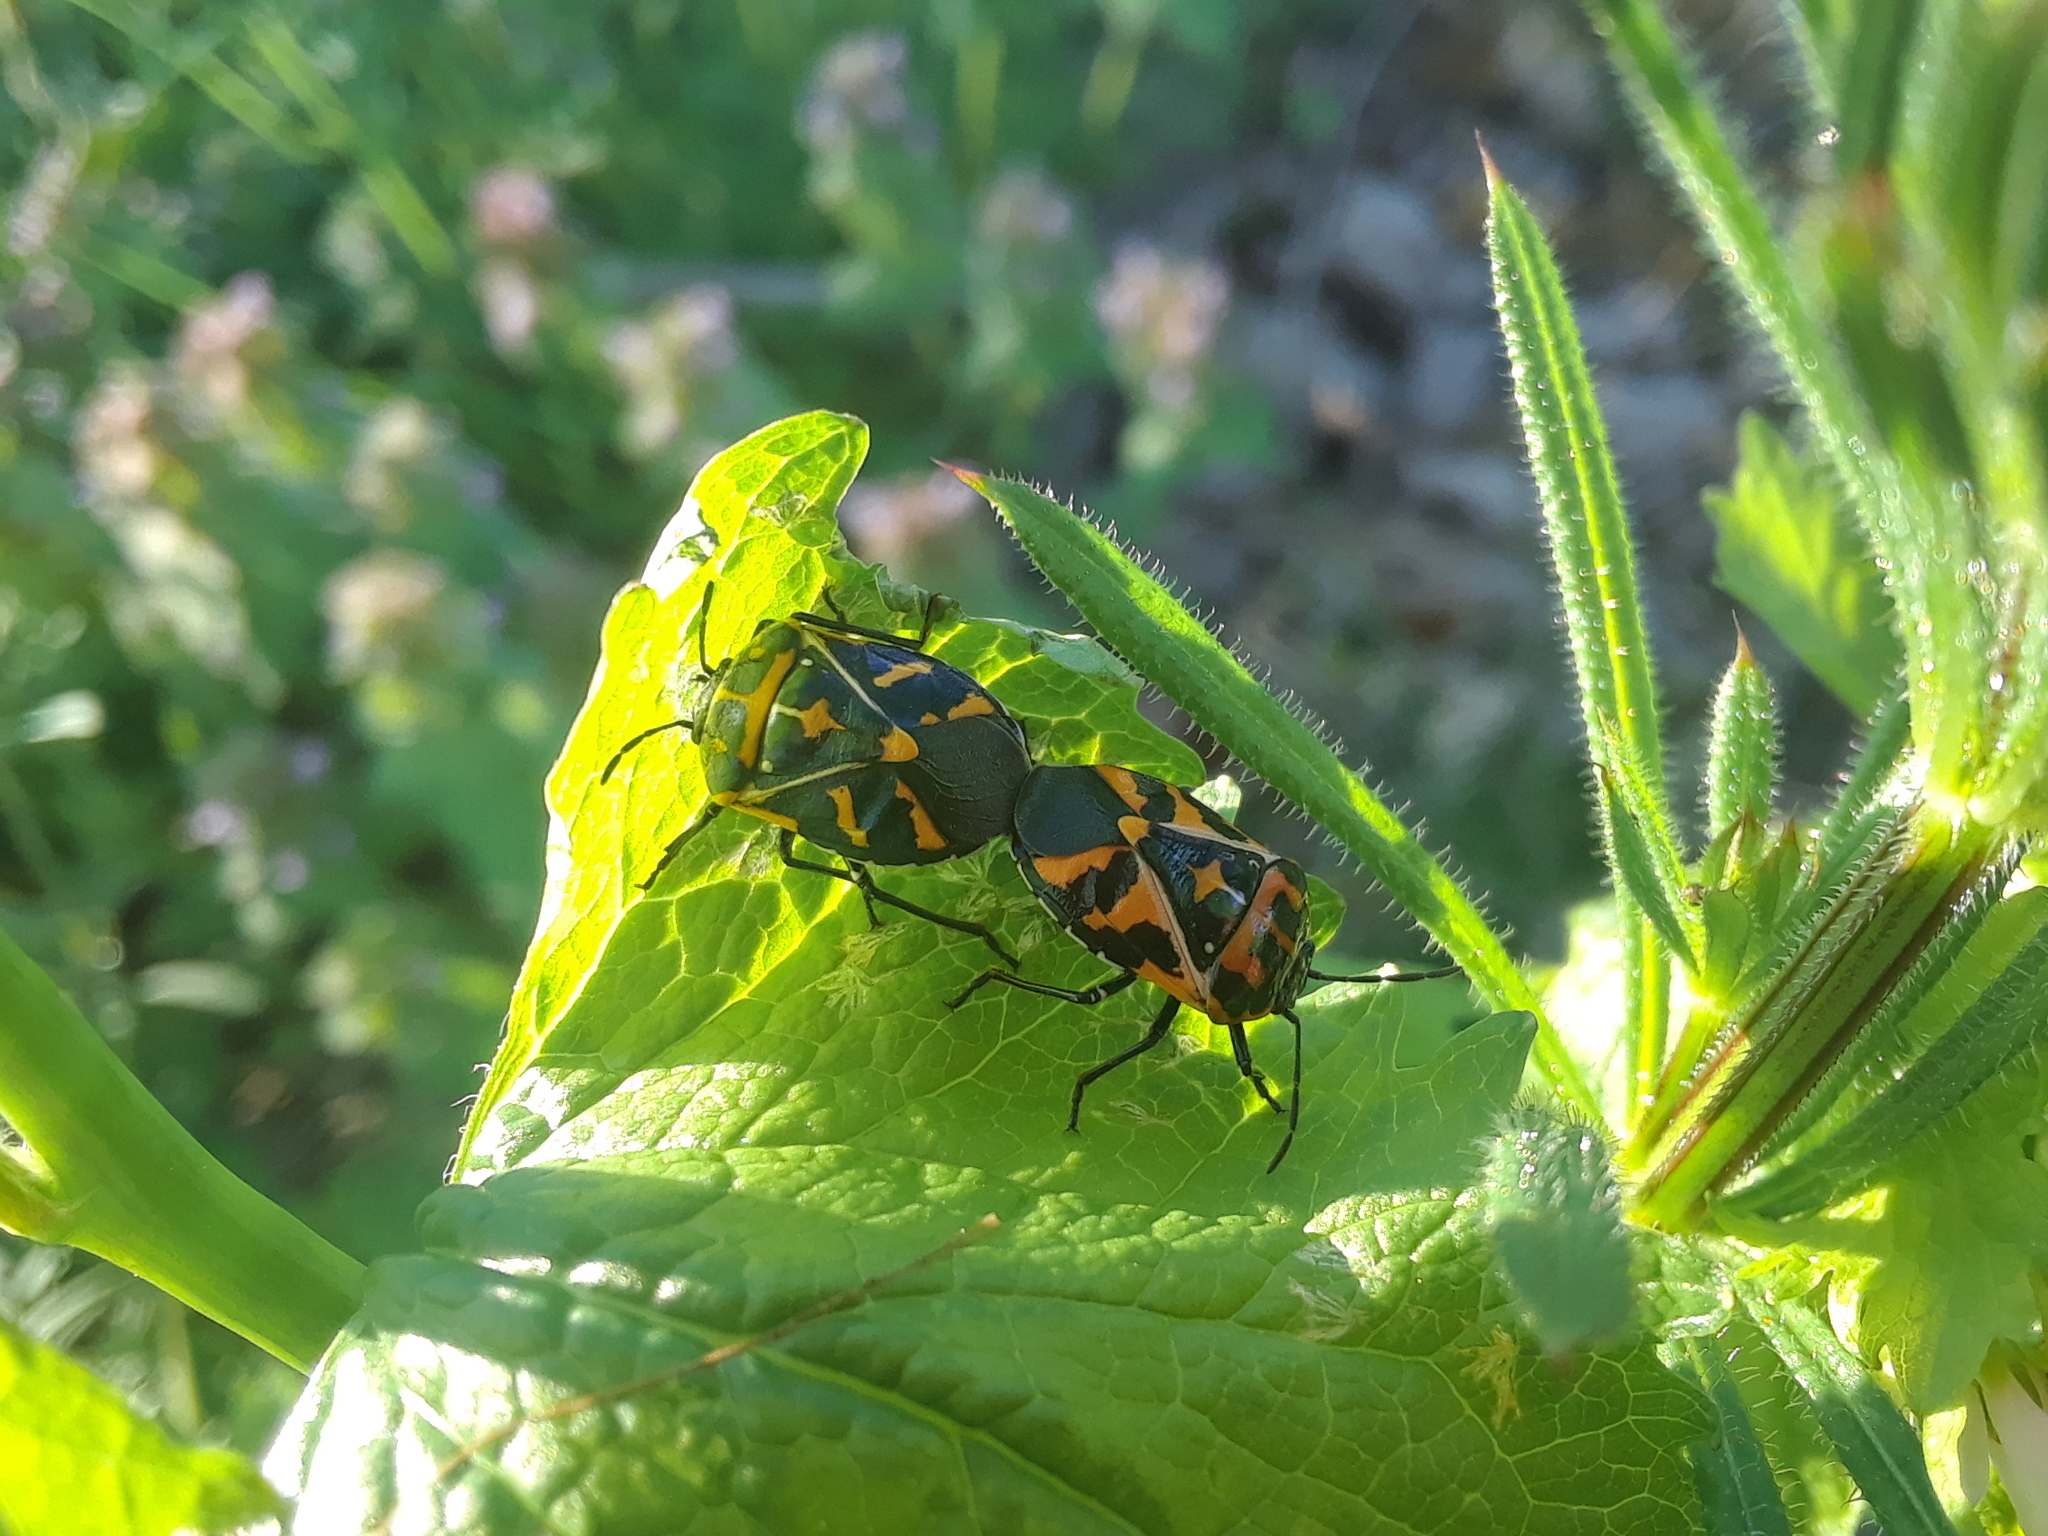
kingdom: Animalia
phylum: Arthropoda
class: Insecta
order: Hemiptera
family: Pentatomidae
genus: Murgantia
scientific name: Murgantia histrionica
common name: Harlequin bug
